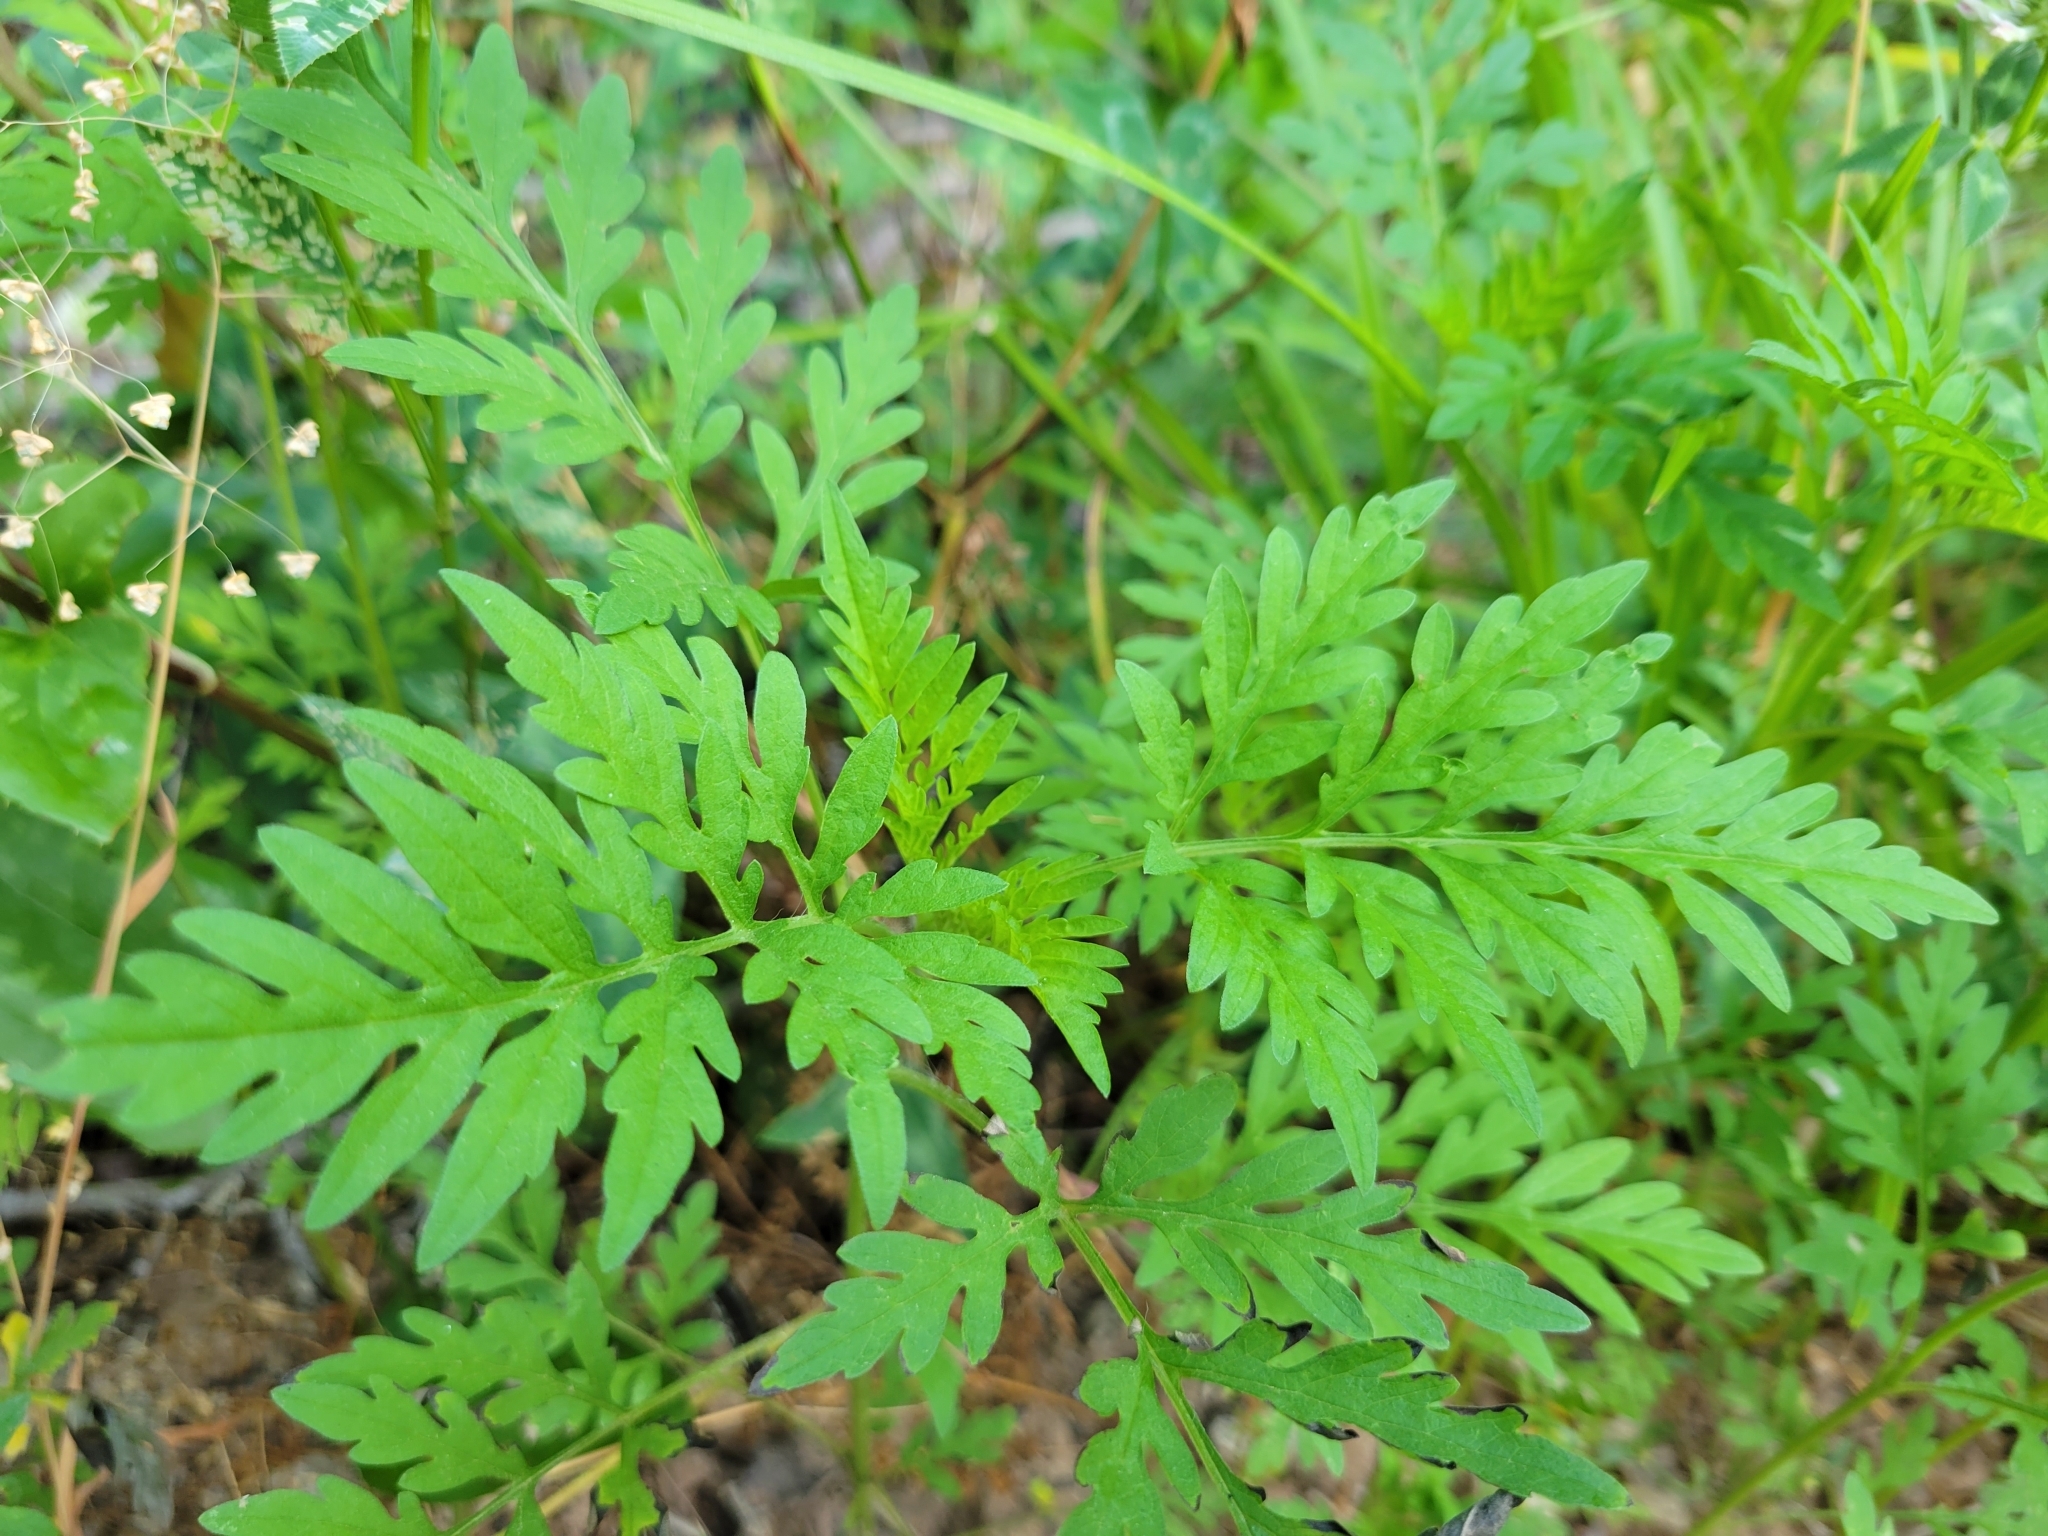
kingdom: Plantae
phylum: Tracheophyta
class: Magnoliopsida
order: Asterales
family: Asteraceae
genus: Ambrosia
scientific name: Ambrosia artemisiifolia
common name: Annual ragweed
